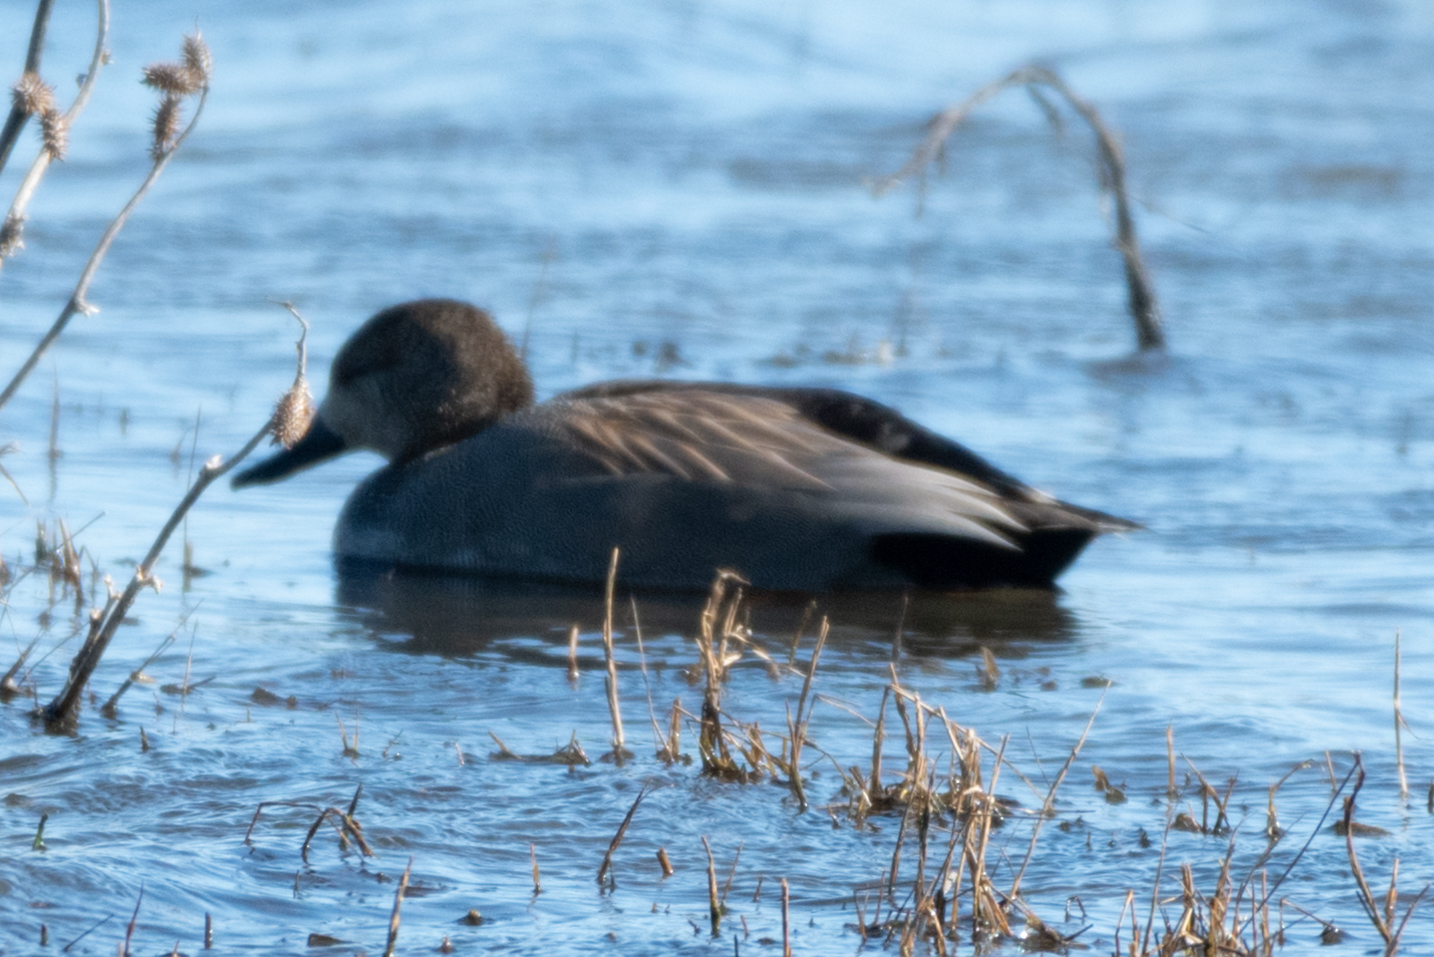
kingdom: Animalia
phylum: Chordata
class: Aves
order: Anseriformes
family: Anatidae
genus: Mareca
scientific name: Mareca strepera
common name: Gadwall
